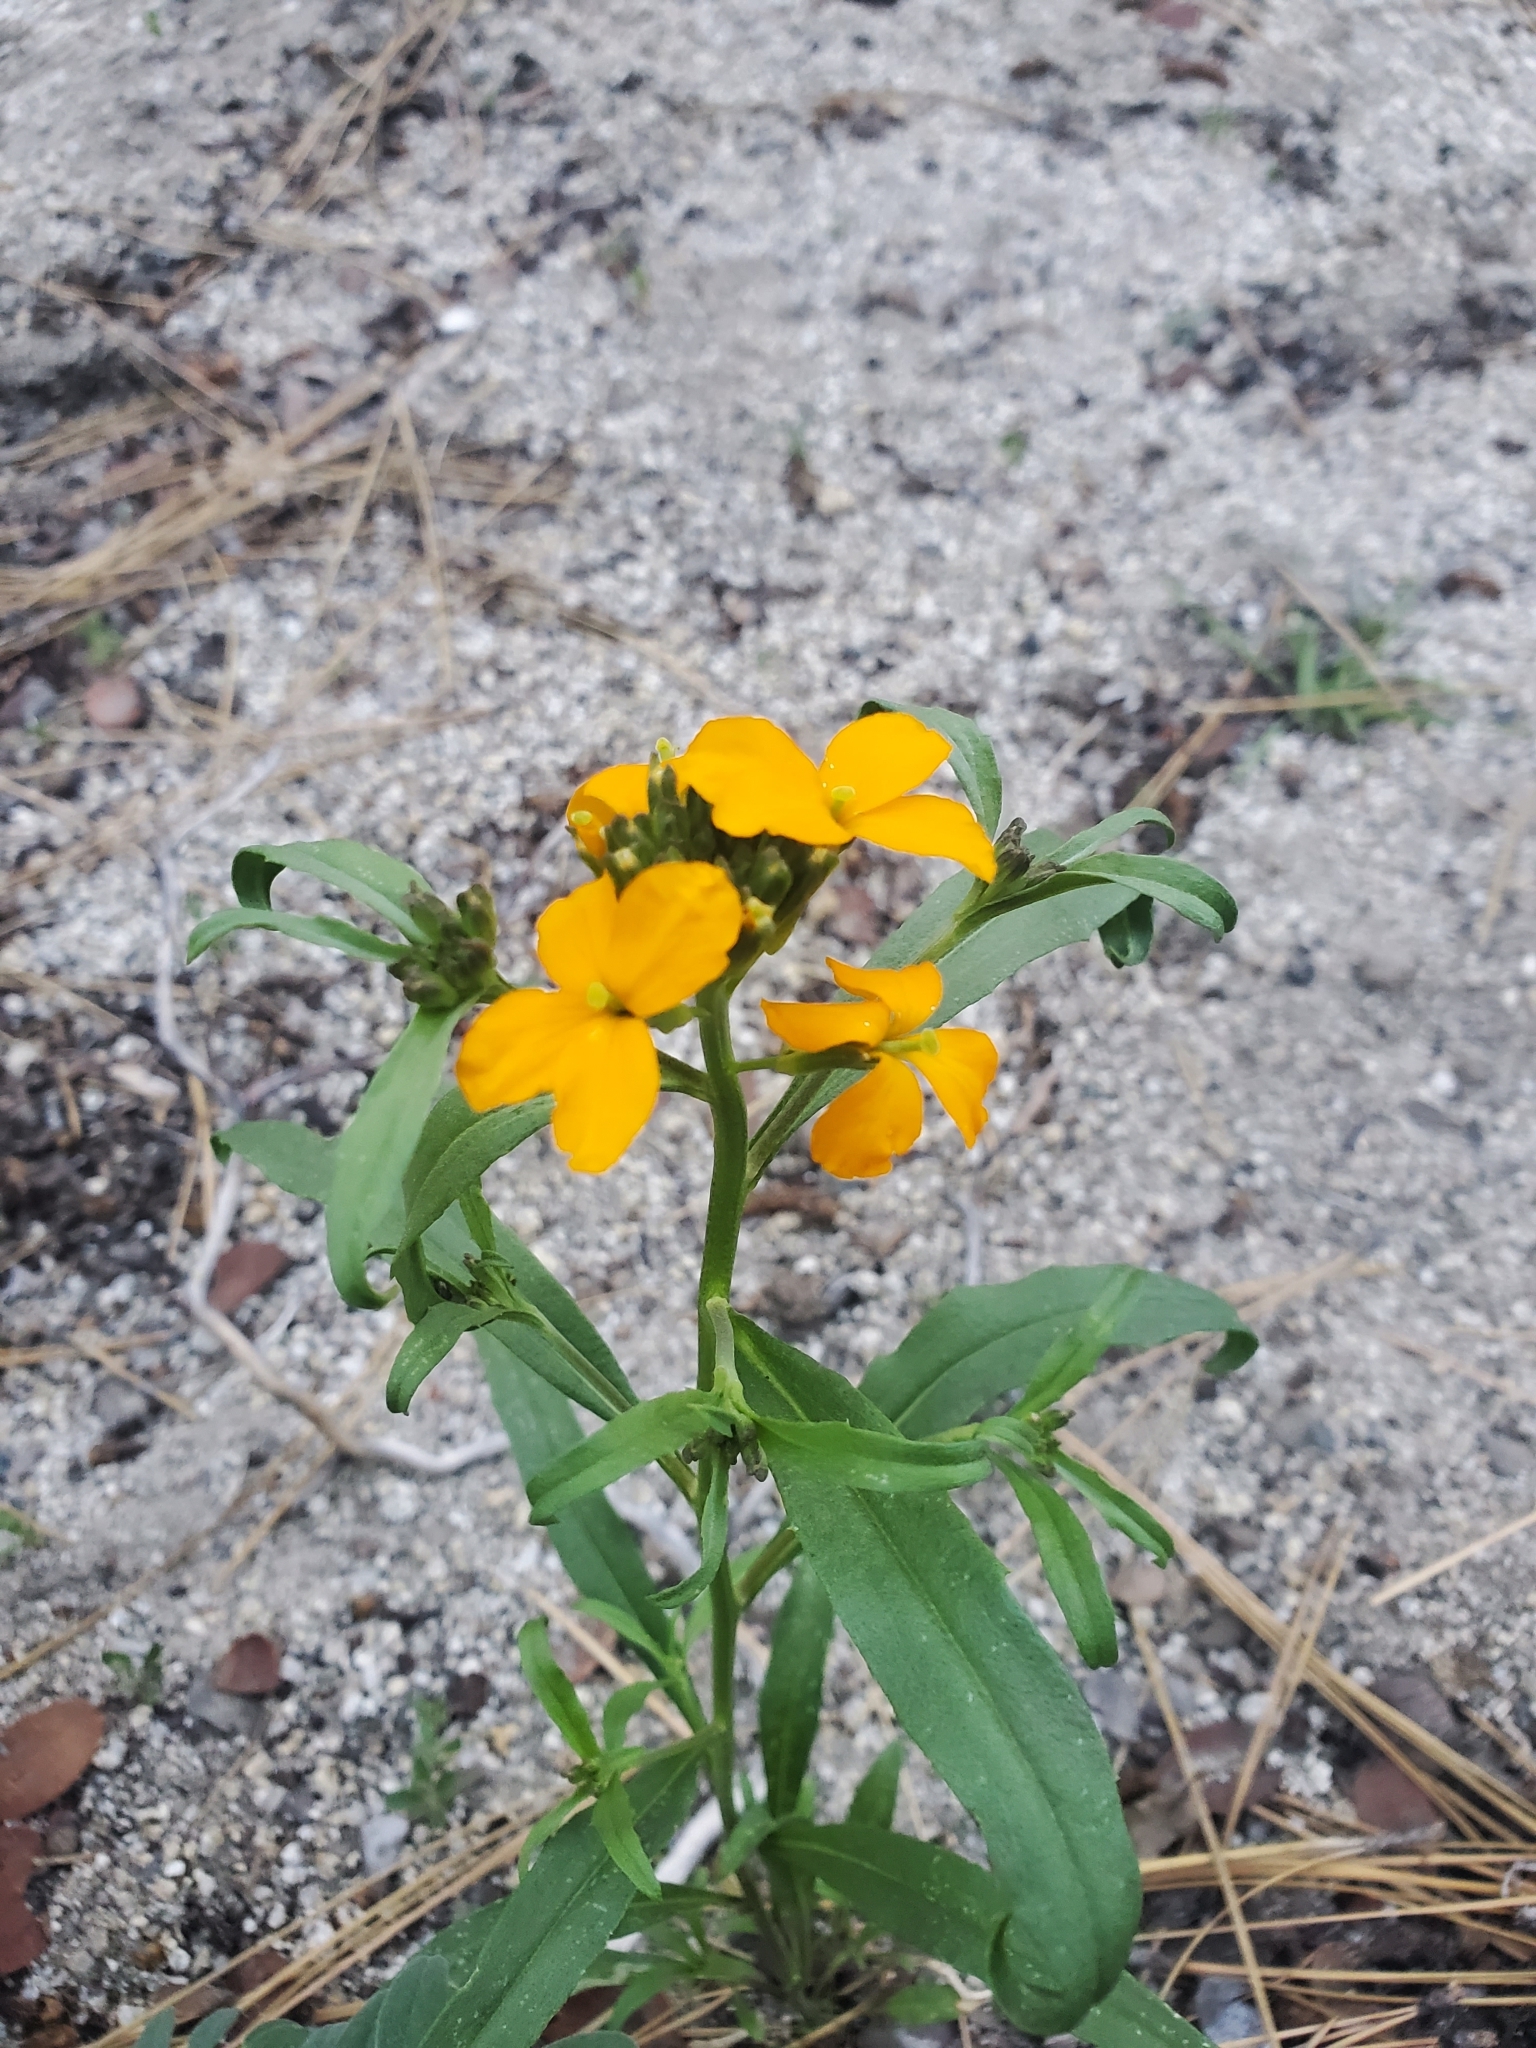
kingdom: Plantae
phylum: Tracheophyta
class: Magnoliopsida
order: Brassicales
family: Brassicaceae
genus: Erysimum
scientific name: Erysimum capitatum
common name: Western wallflower
